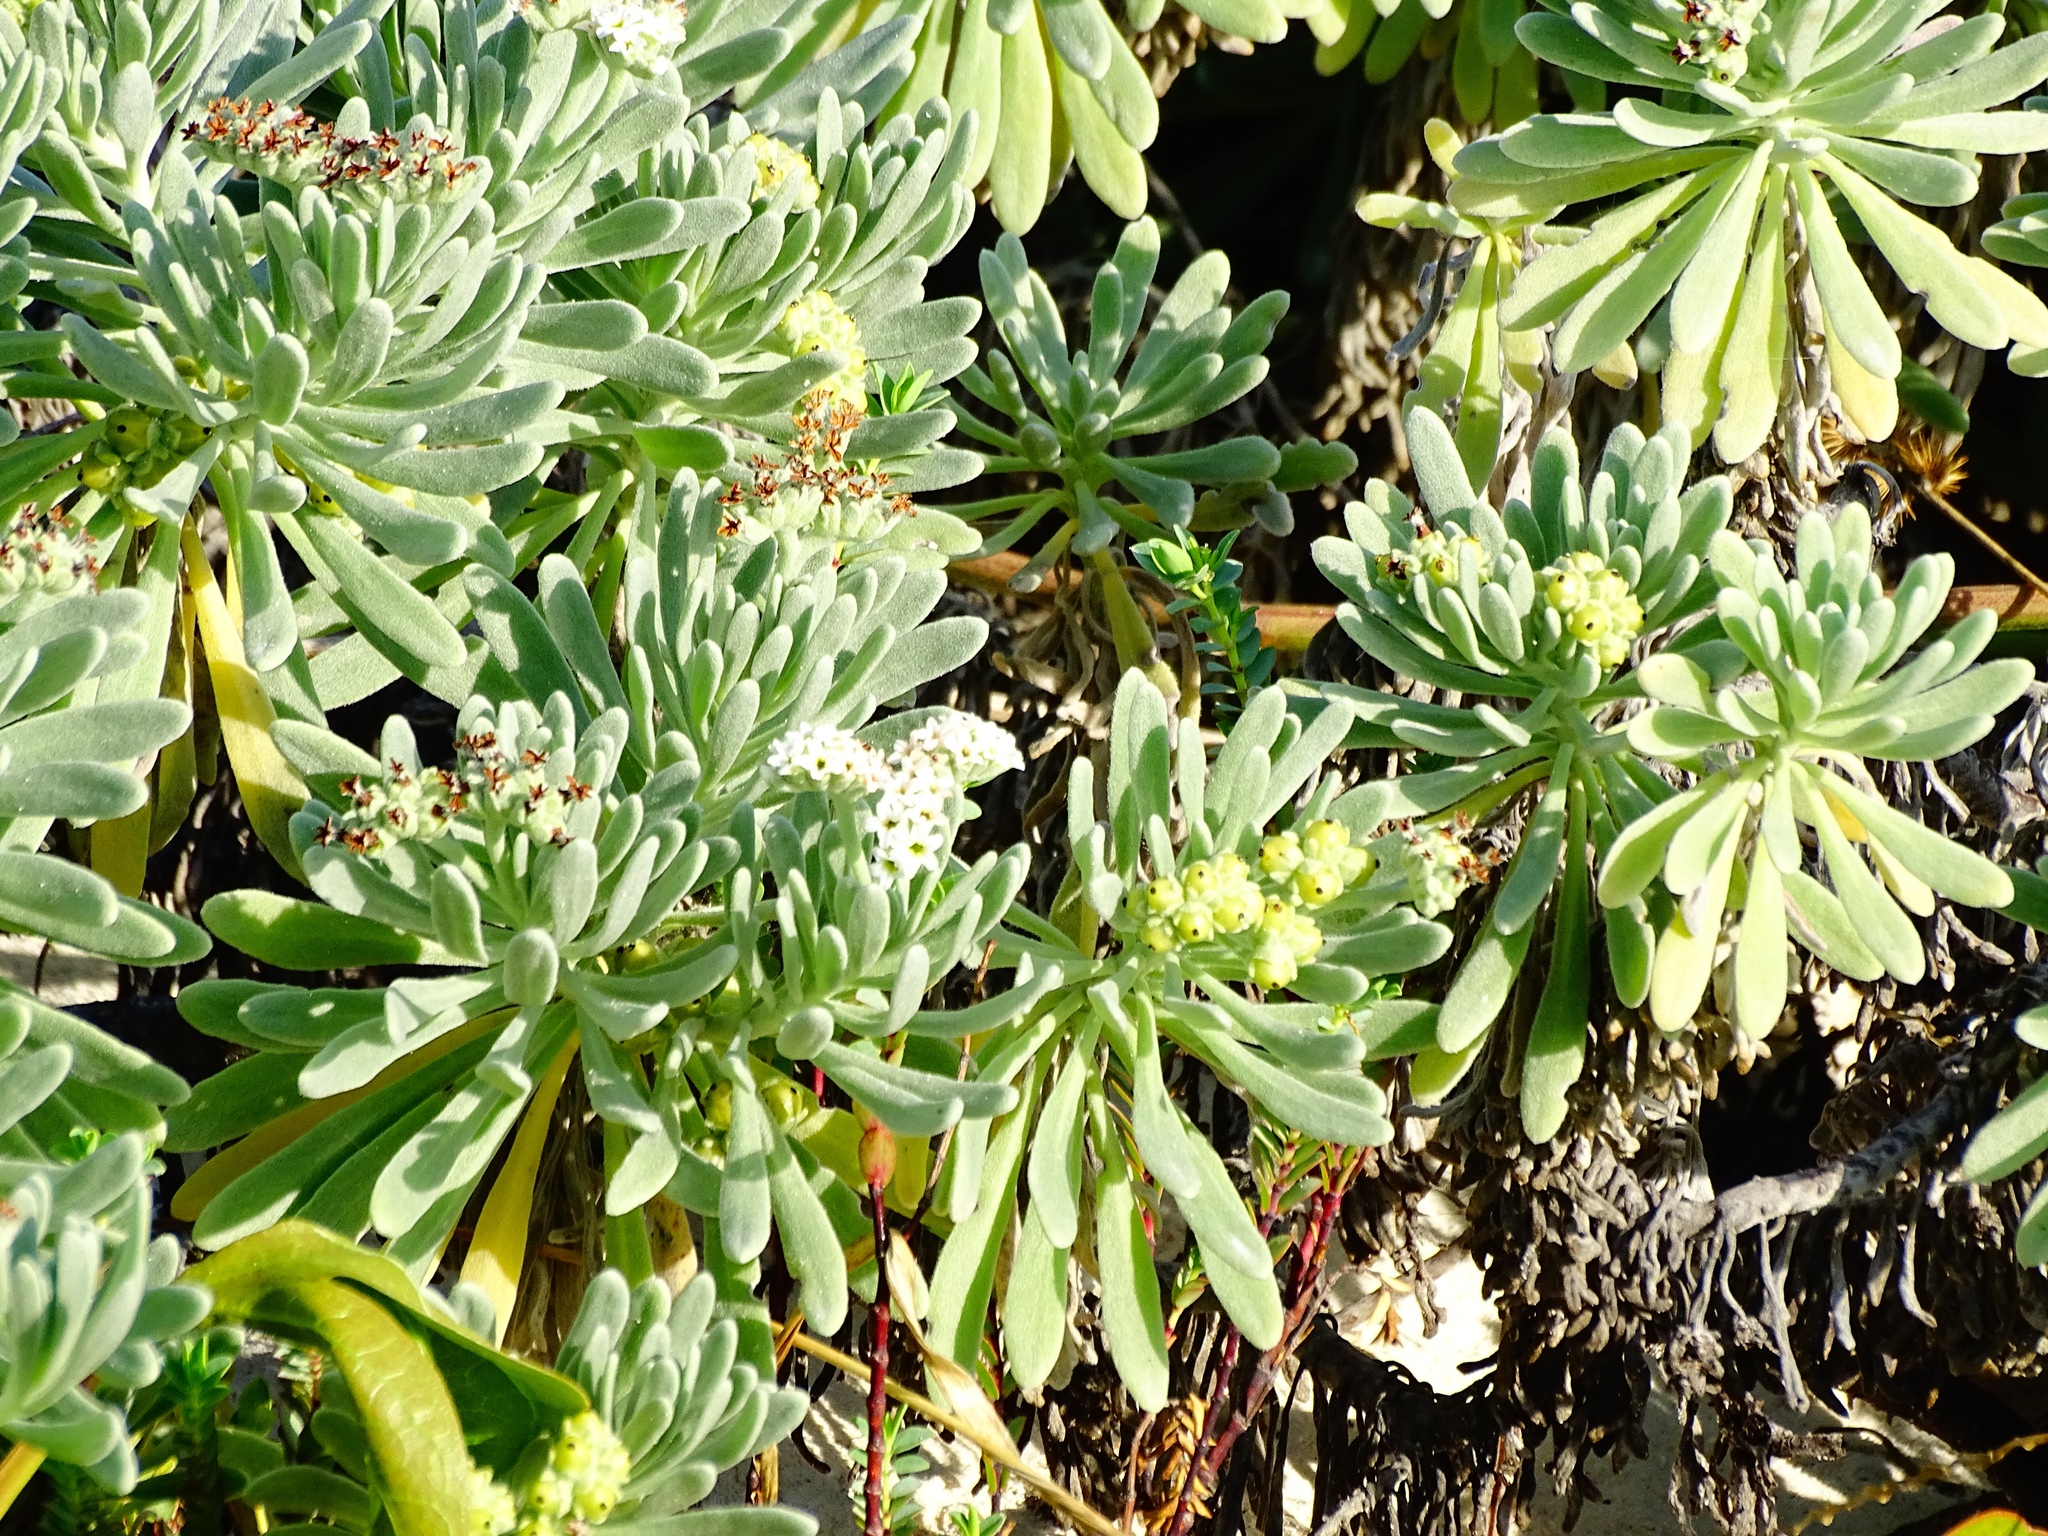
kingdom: Plantae
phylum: Tracheophyta
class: Magnoliopsida
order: Boraginales
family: Heliotropiaceae
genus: Tournefortia
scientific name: Tournefortia gnaphalodes
